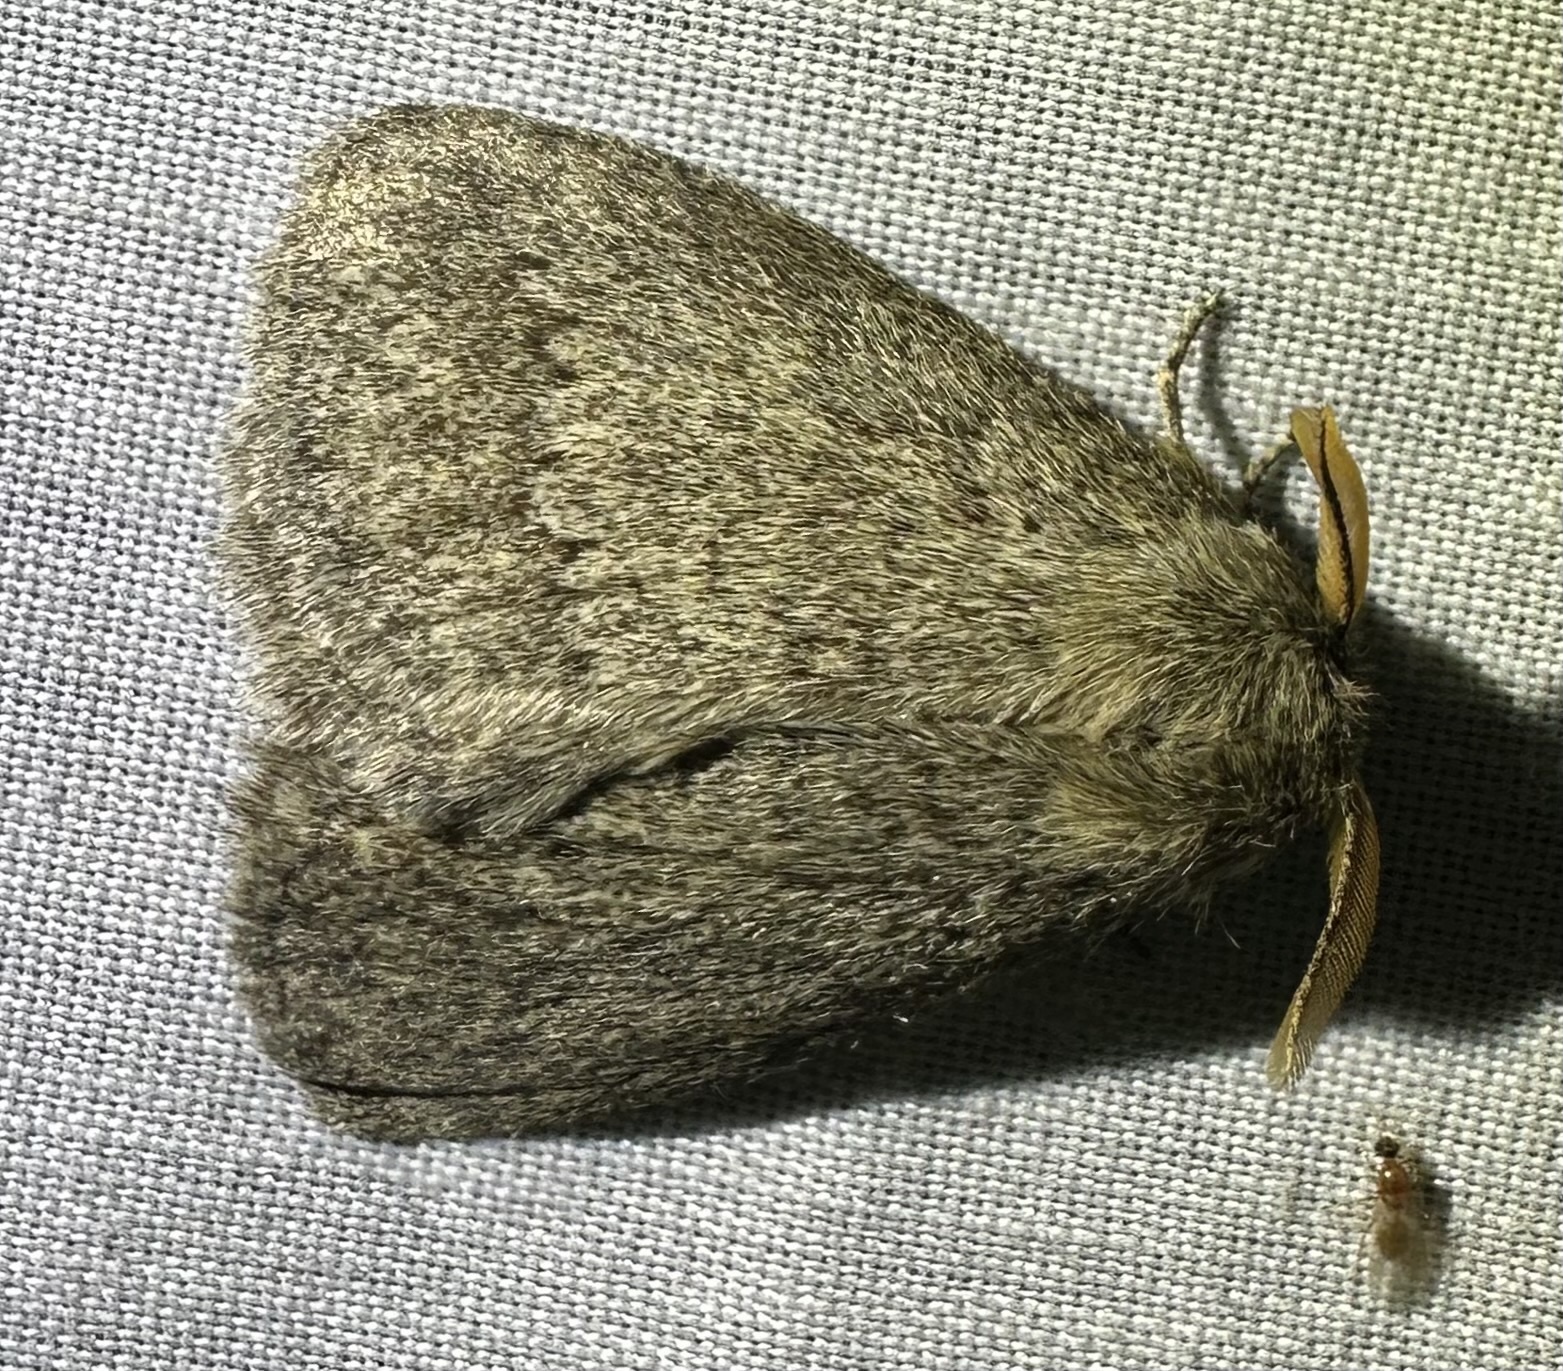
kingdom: Animalia
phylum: Arthropoda
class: Insecta
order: Lepidoptera
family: Eupterotidae
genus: Lichenopteryx
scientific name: Lichenopteryx despecta
